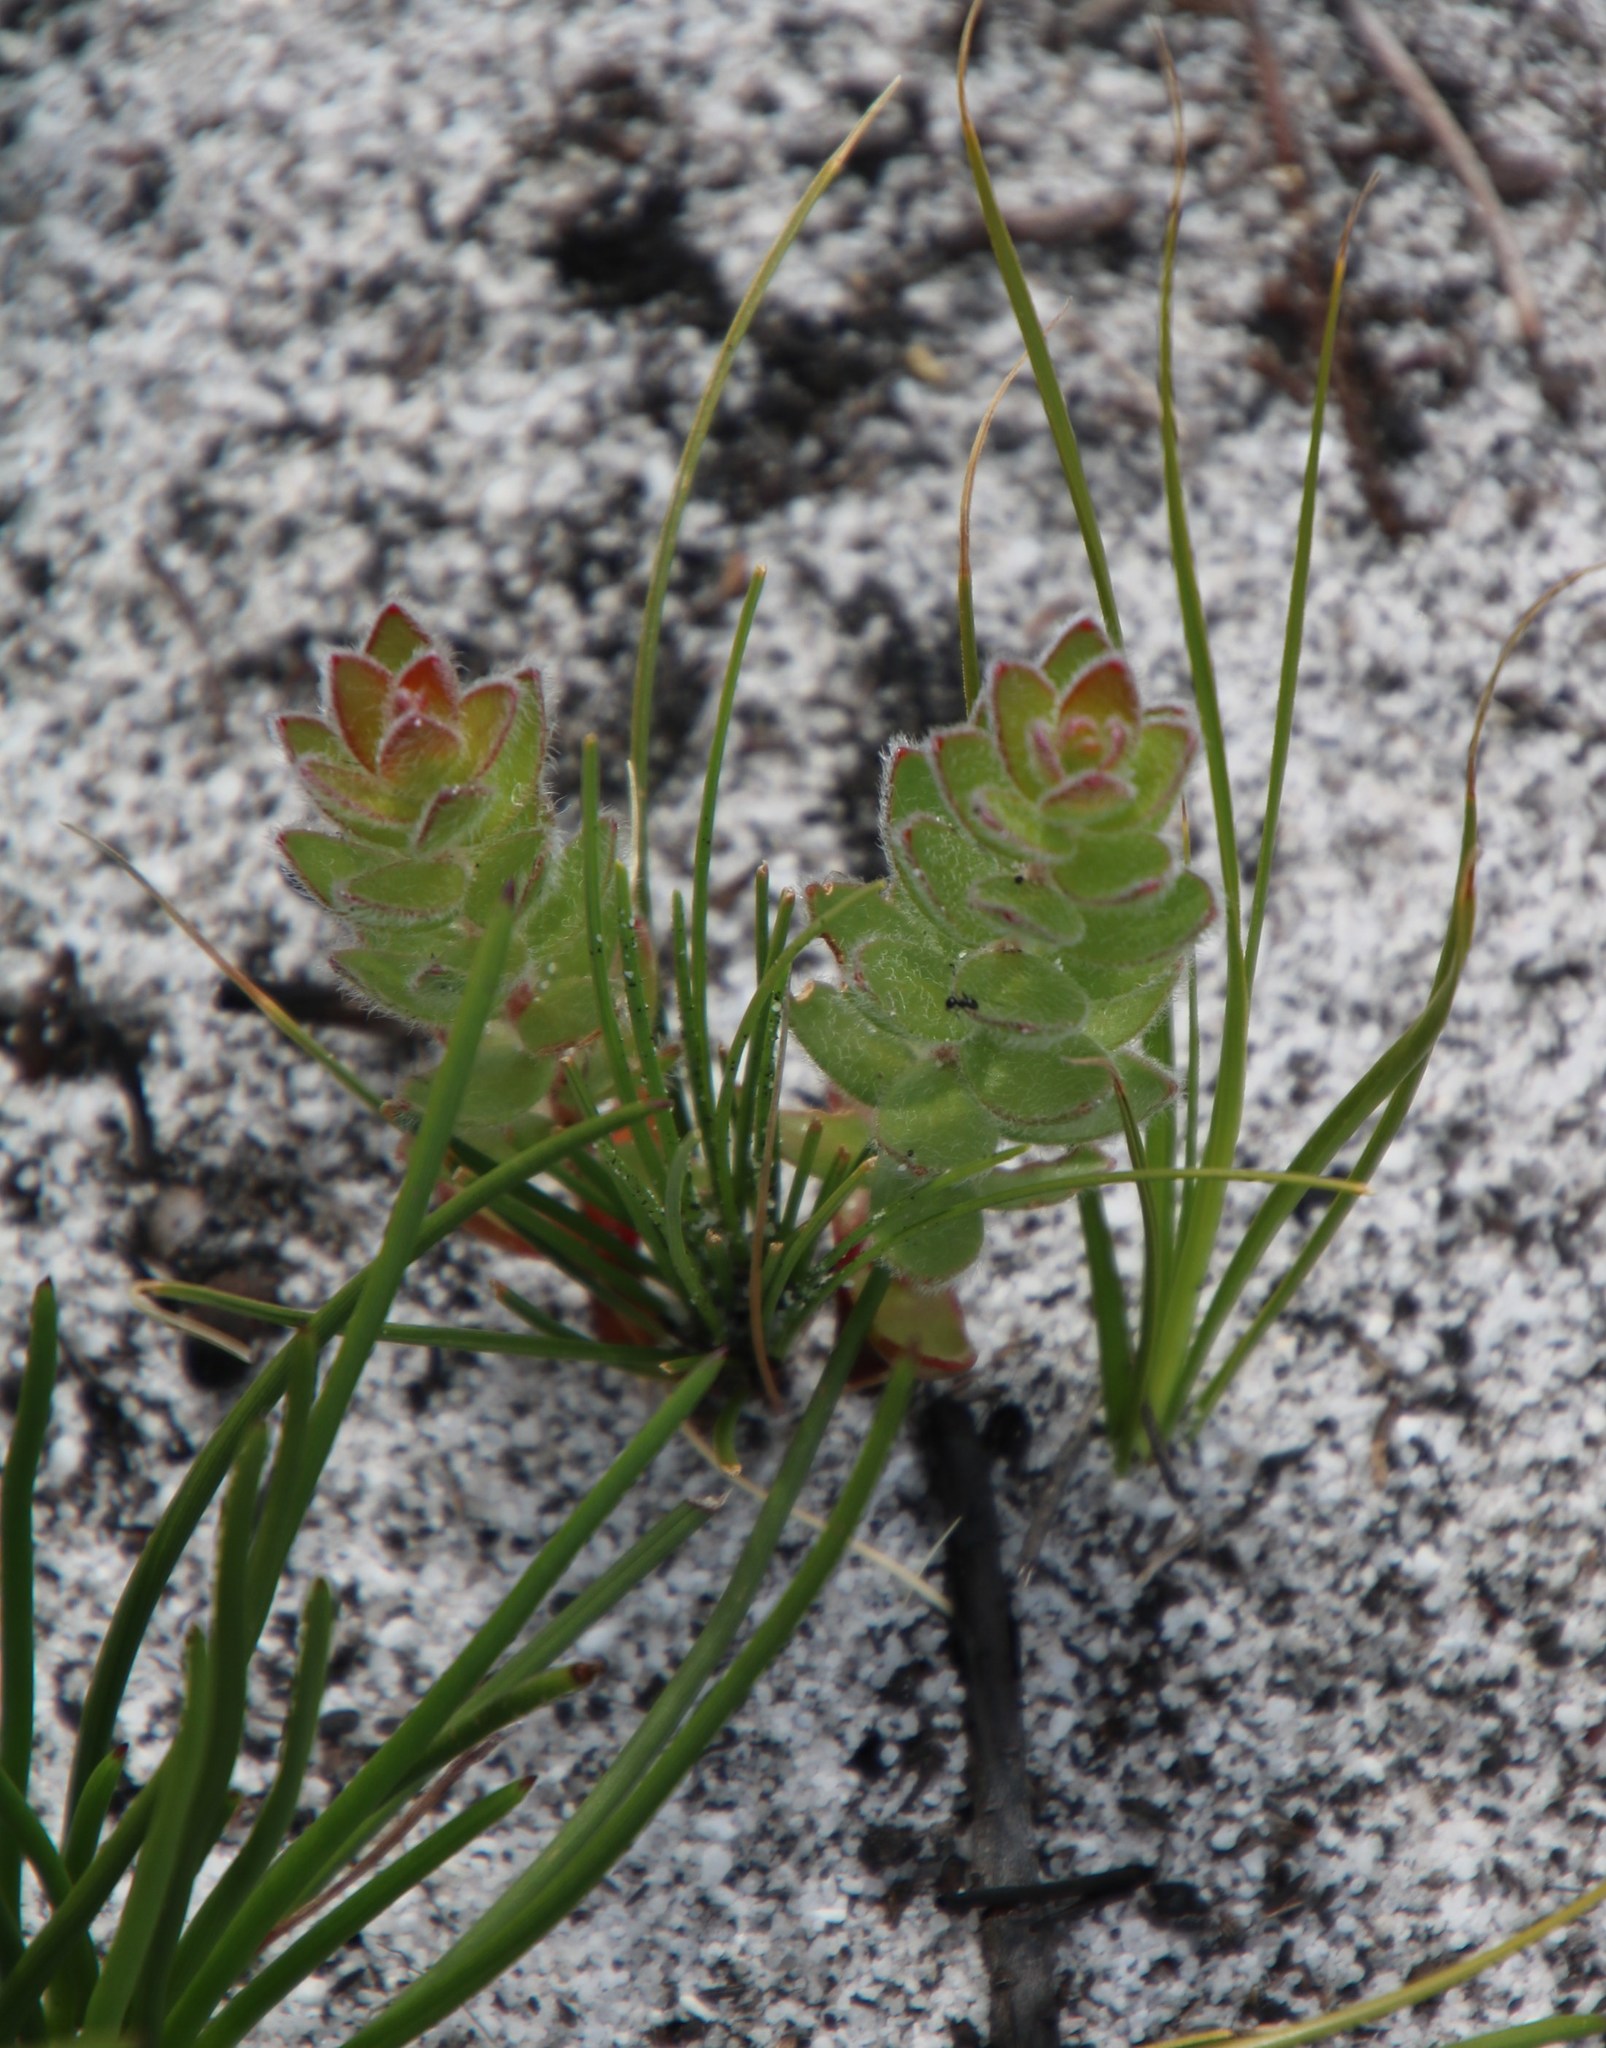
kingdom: Plantae
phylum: Tracheophyta
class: Magnoliopsida
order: Proteales
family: Proteaceae
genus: Diastella
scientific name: Diastella divaricata
